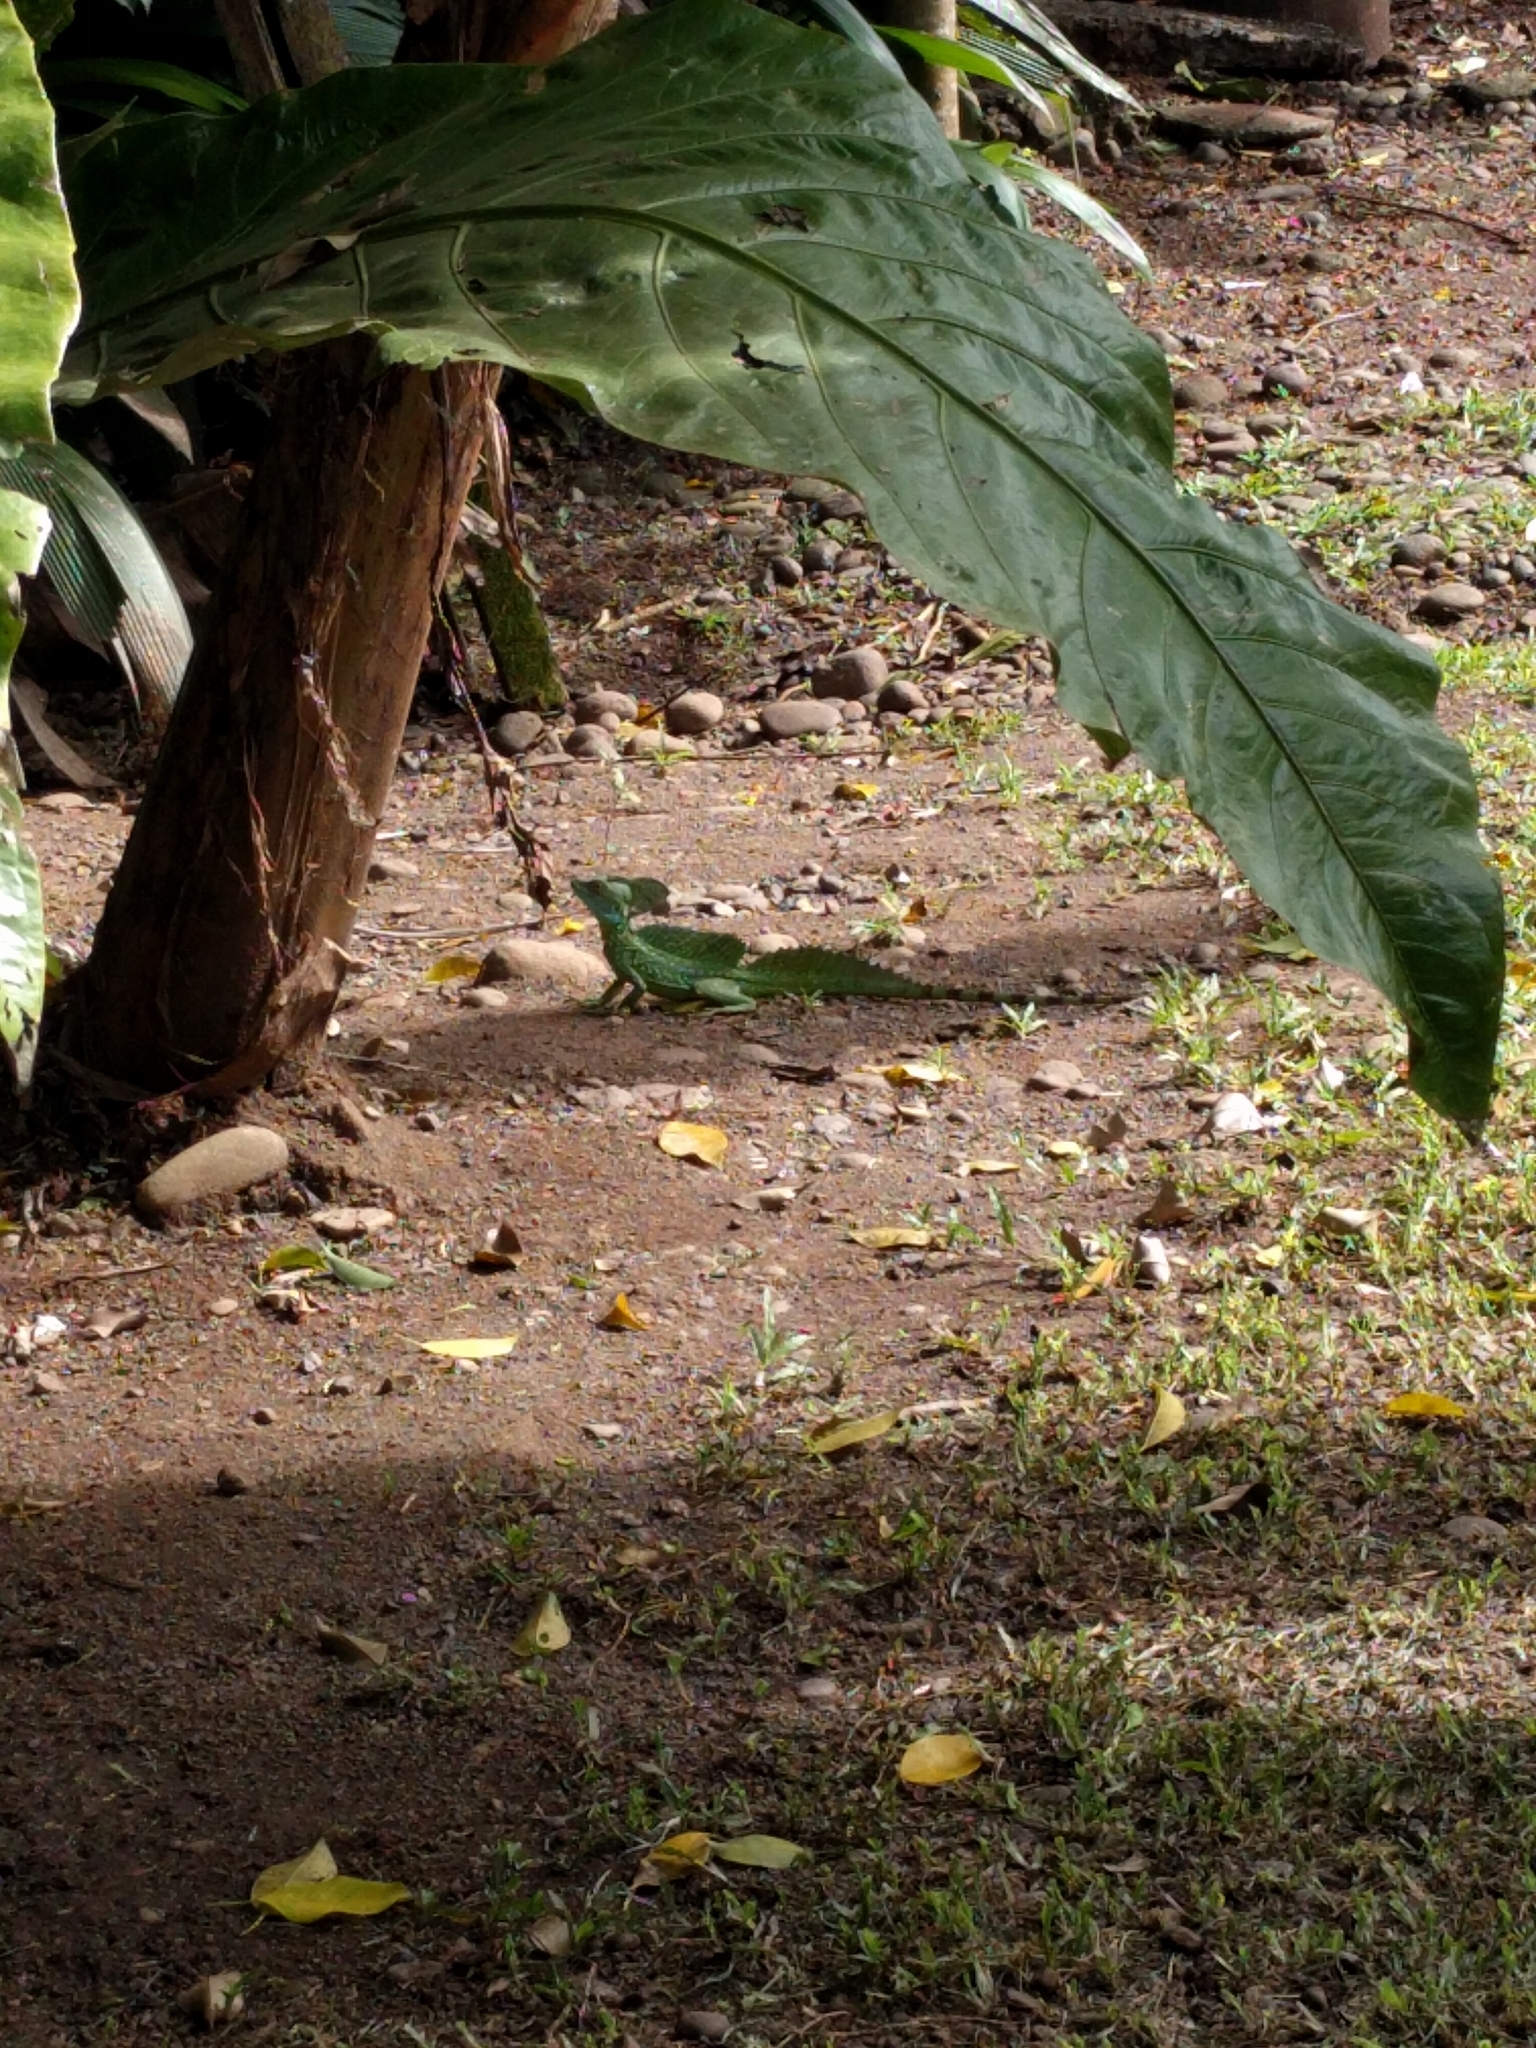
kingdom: Animalia
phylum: Chordata
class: Squamata
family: Corytophanidae
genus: Basiliscus
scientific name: Basiliscus plumifrons
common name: Green basilisk
